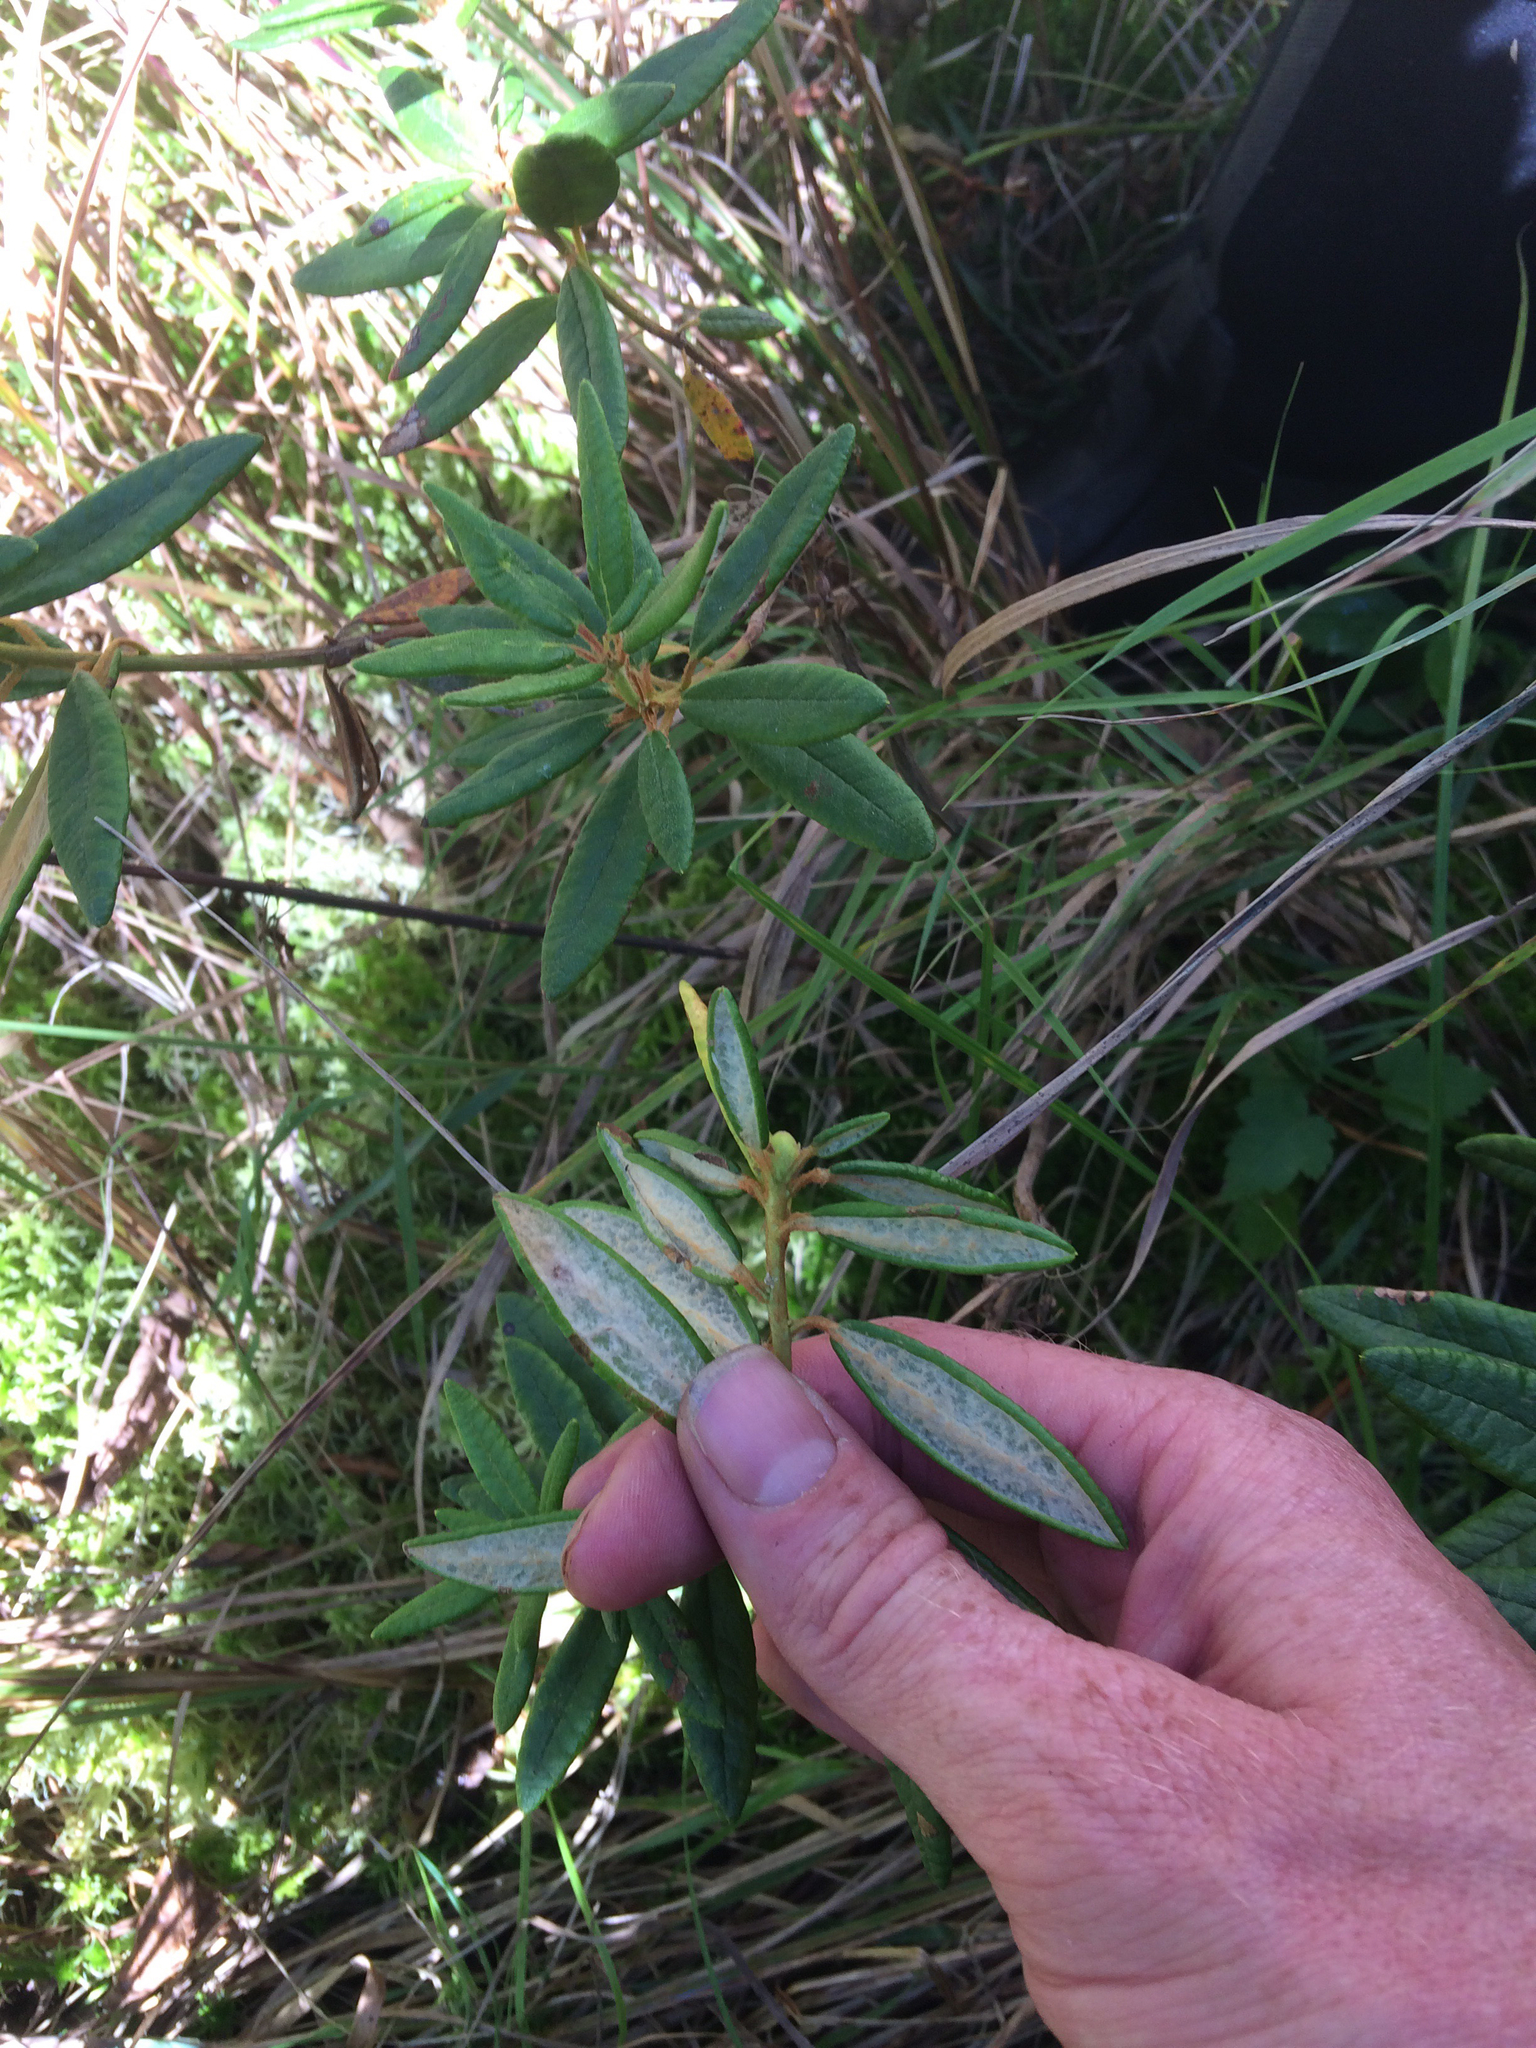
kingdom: Plantae
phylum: Tracheophyta
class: Magnoliopsida
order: Ericales
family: Ericaceae
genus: Rhododendron
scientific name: Rhododendron groenlandicum
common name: Bog labrador tea
